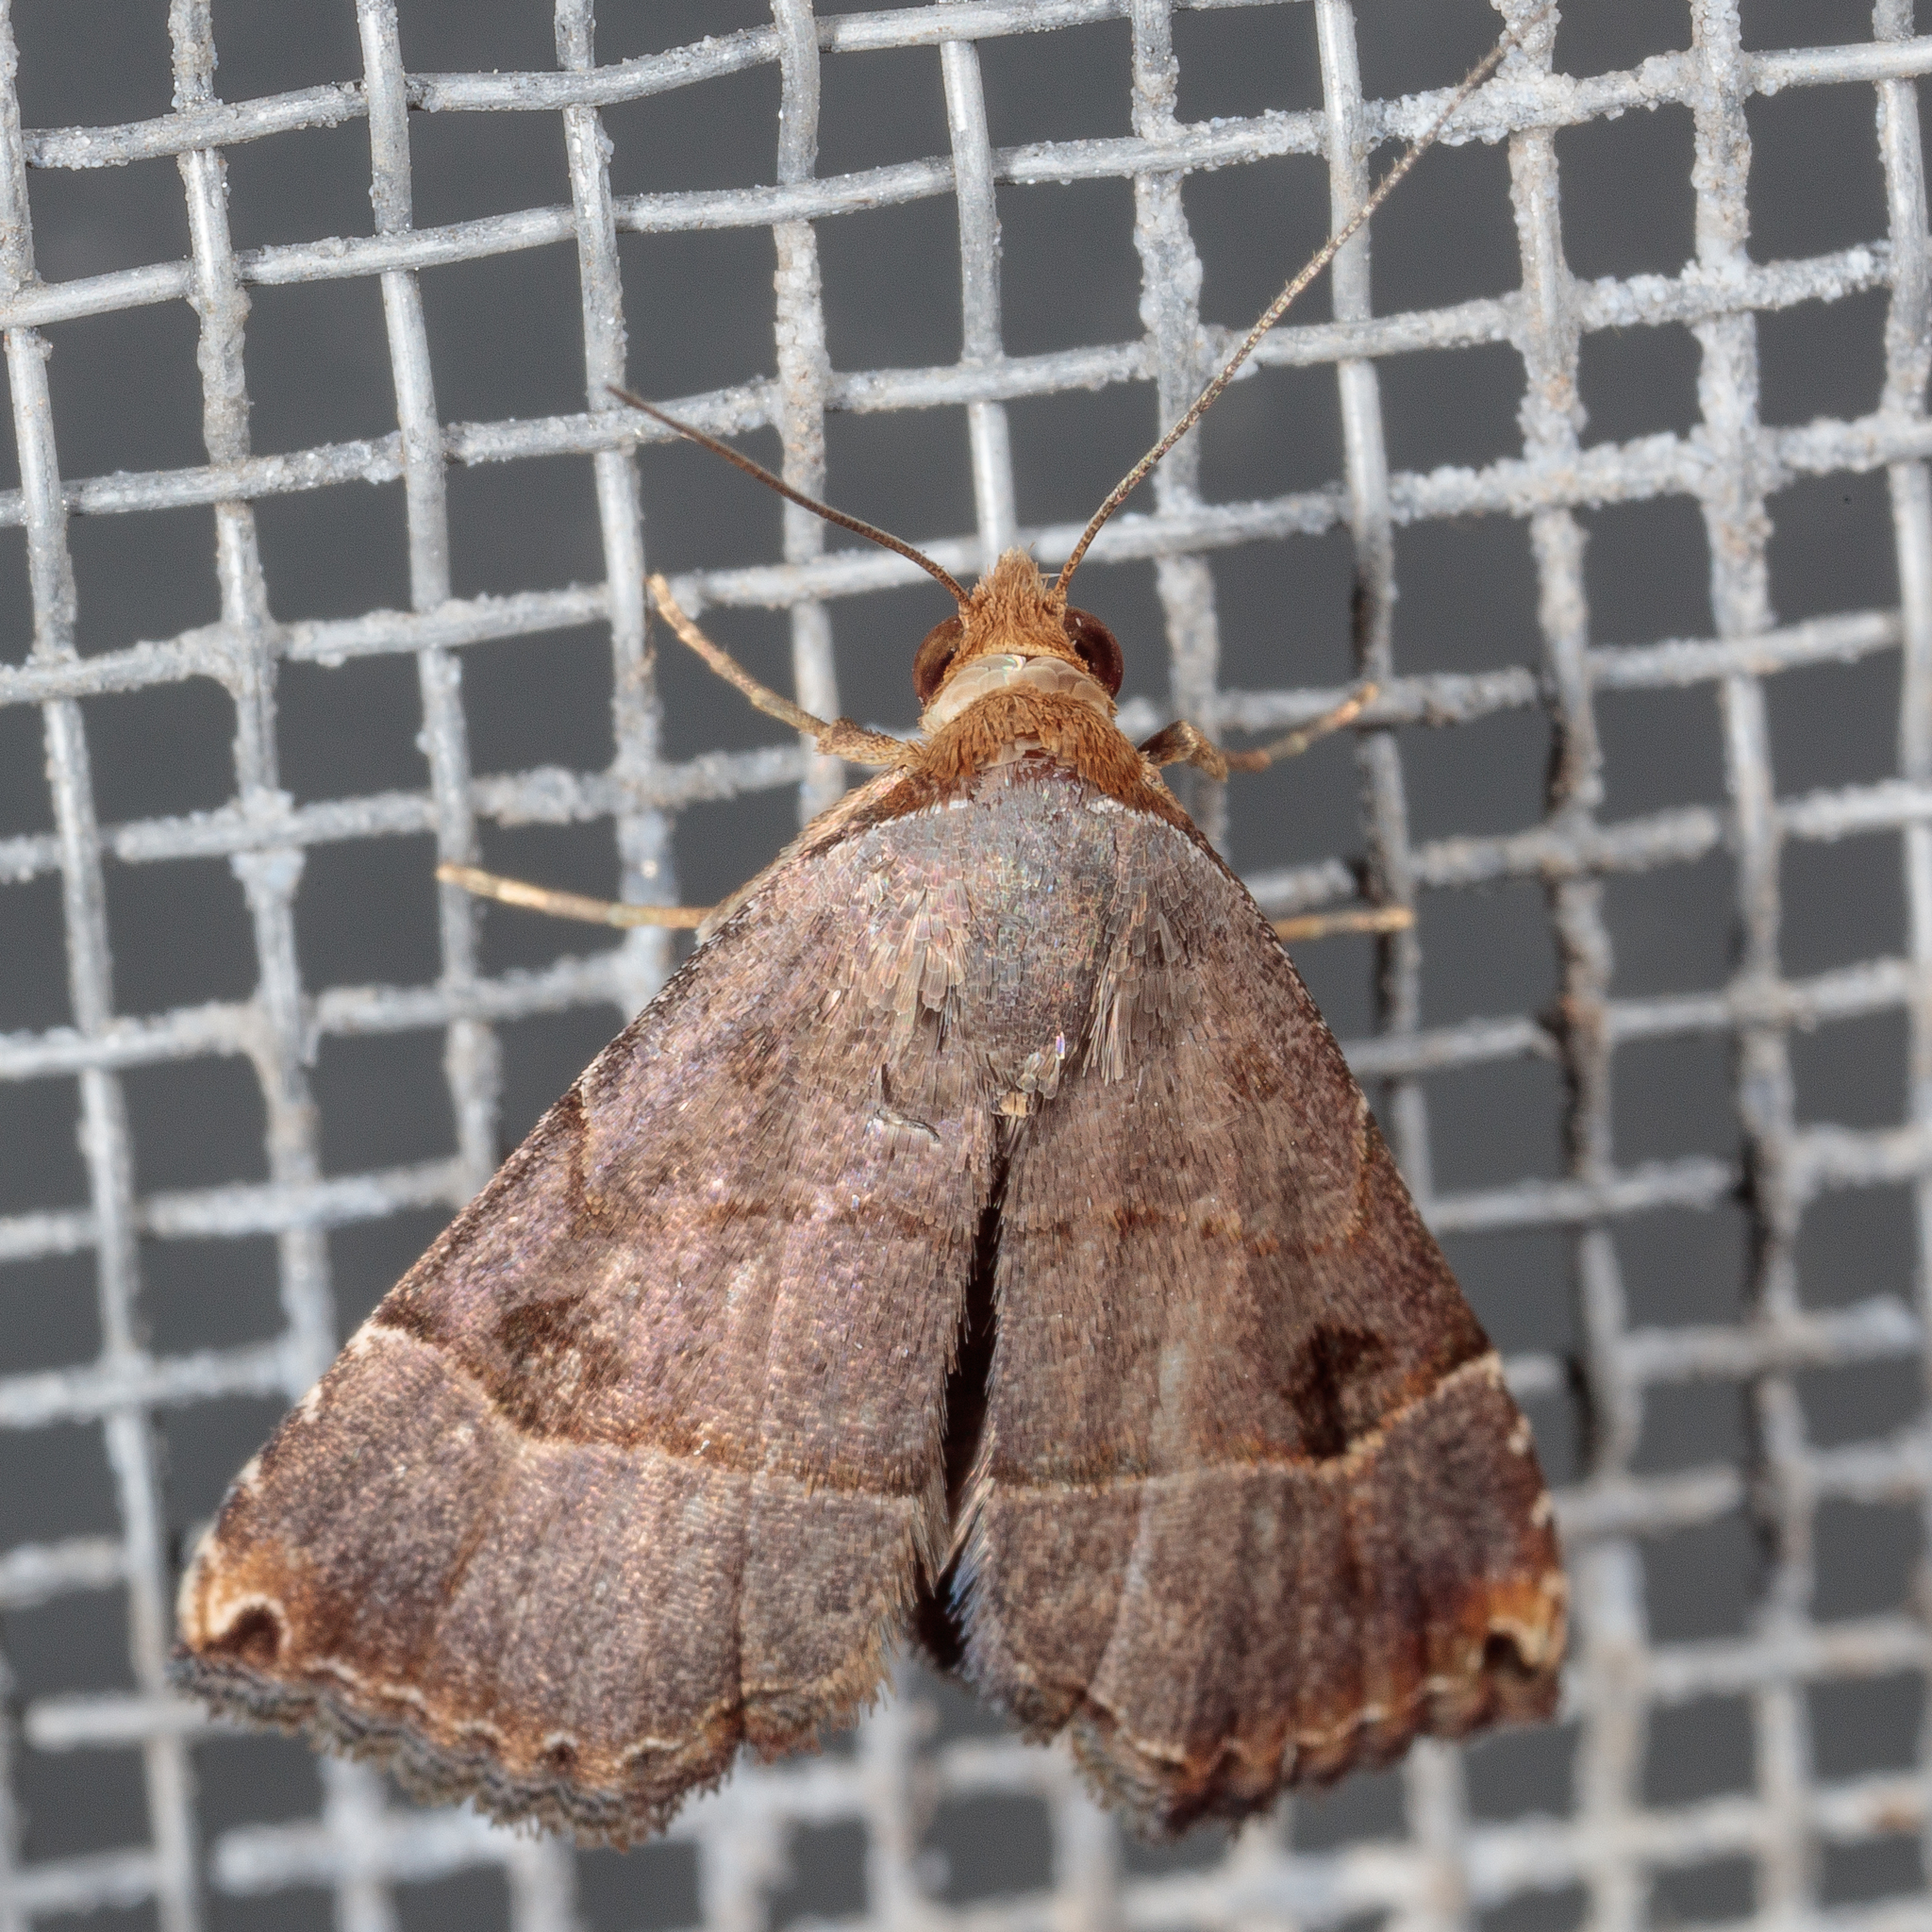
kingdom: Animalia
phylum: Arthropoda
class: Insecta
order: Lepidoptera
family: Noctuidae
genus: Abacena
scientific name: Abacena mundula
